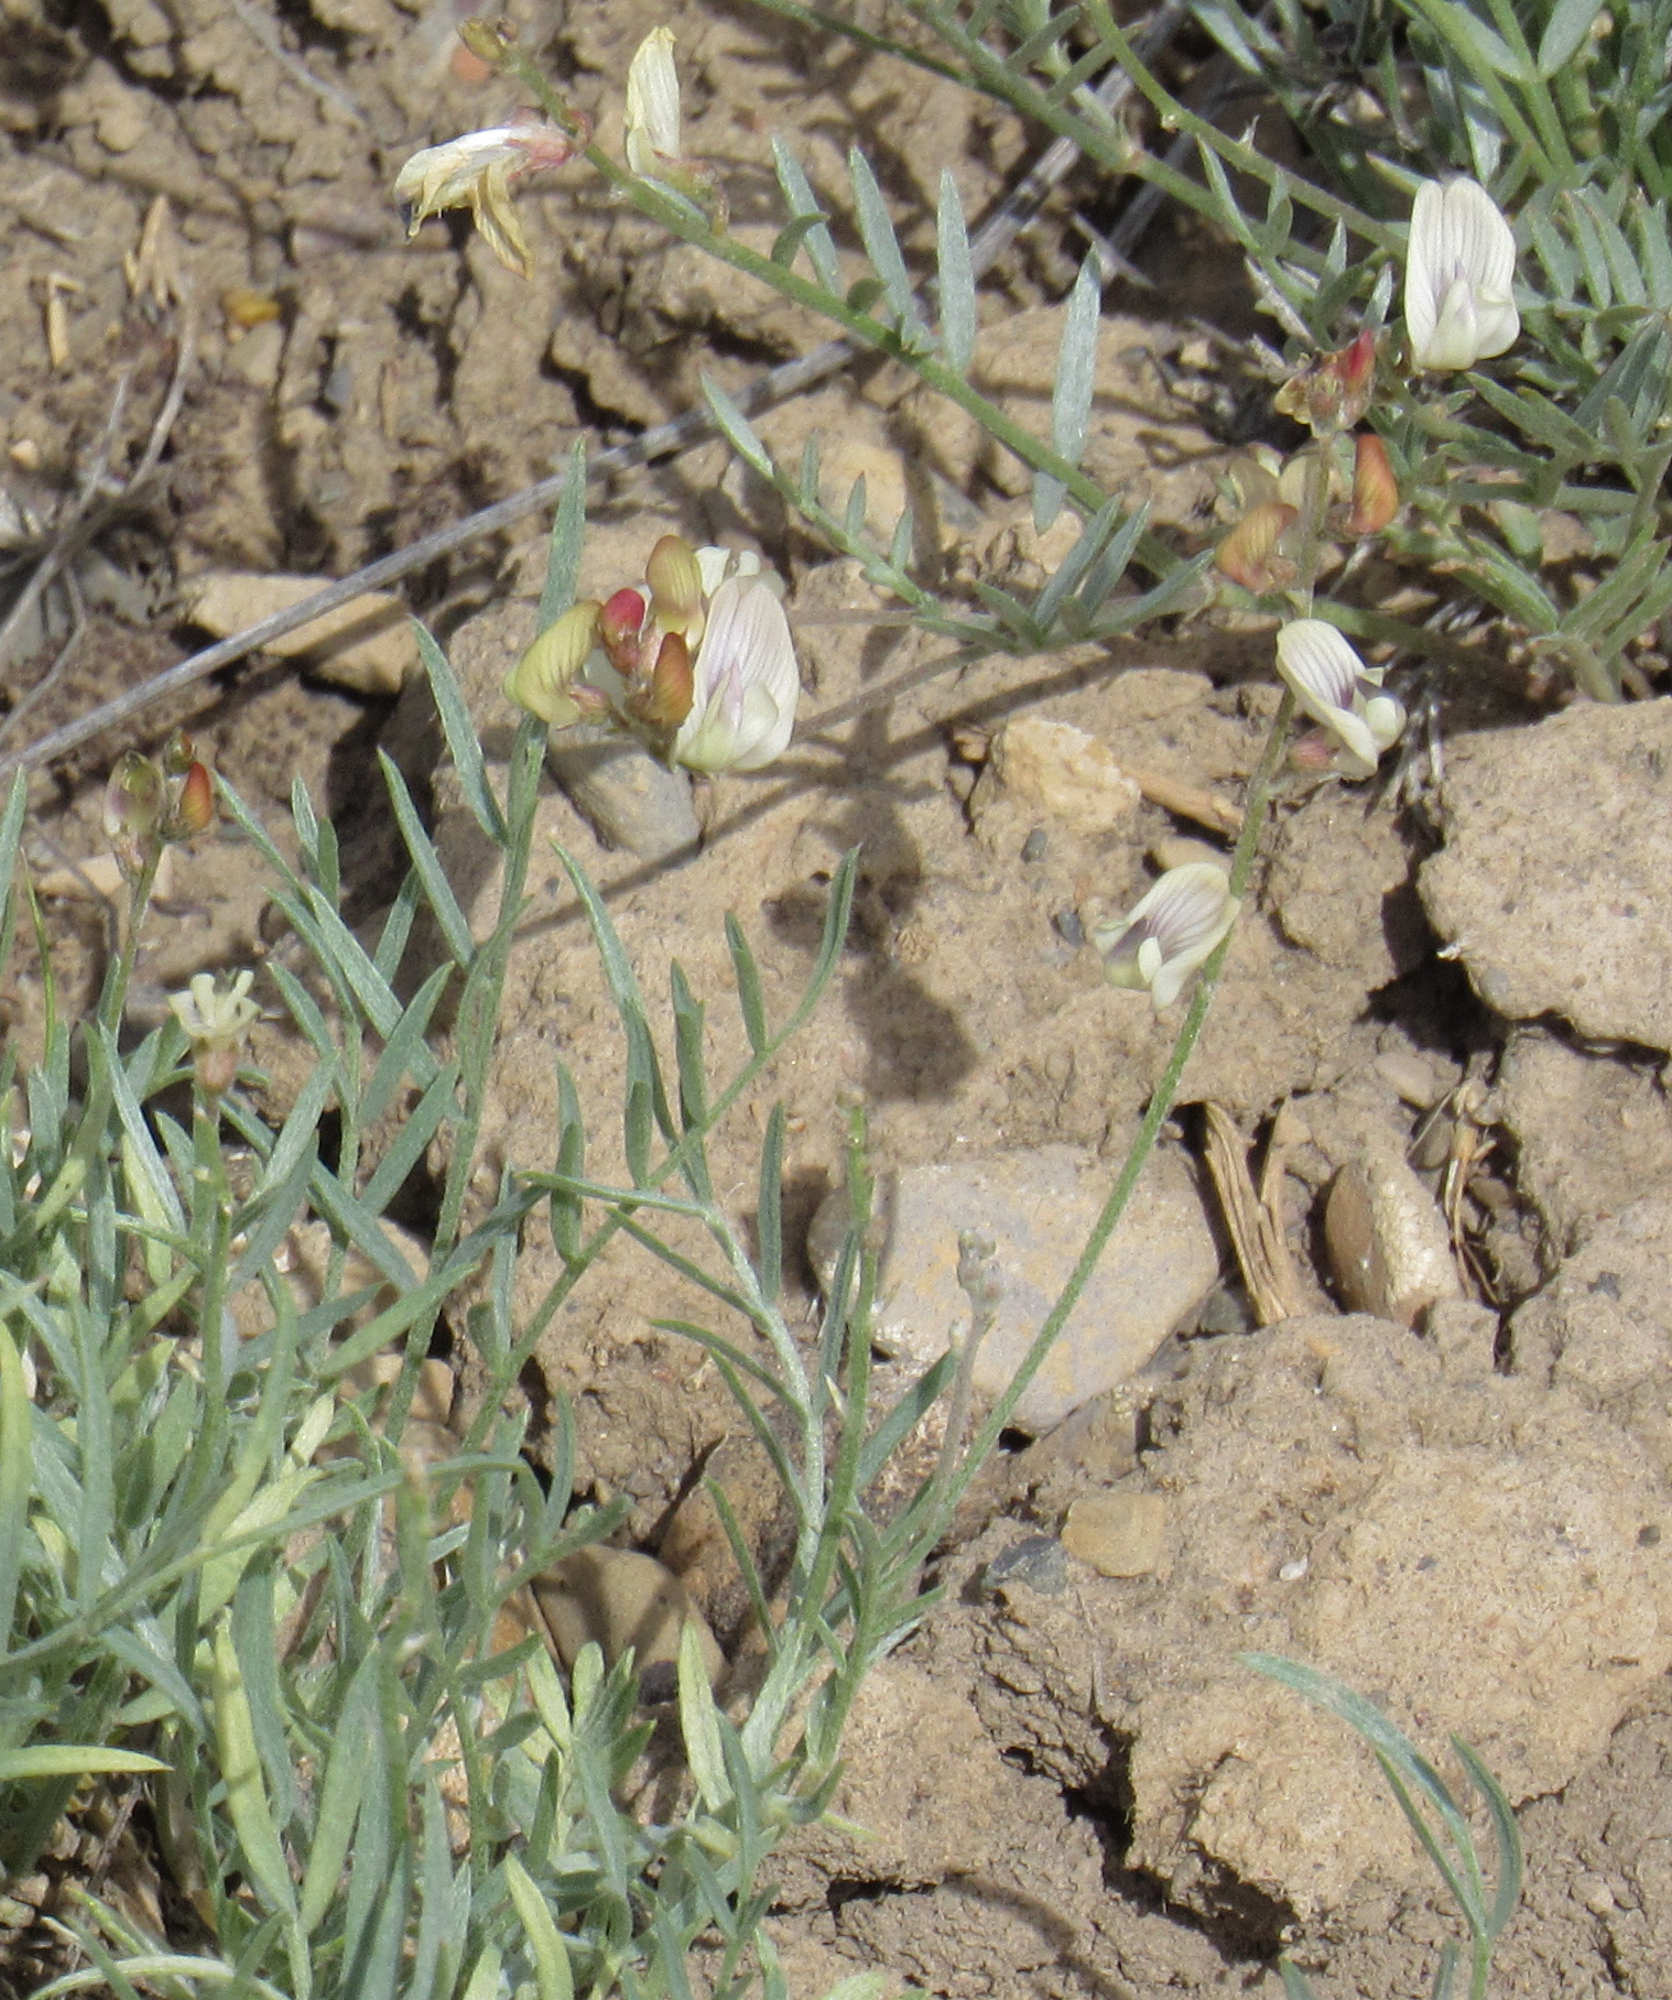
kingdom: Plantae
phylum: Tracheophyta
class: Magnoliopsida
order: Fabales
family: Fabaceae
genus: Astragalus
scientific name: Astragalus miser
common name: Timber milkvetch
